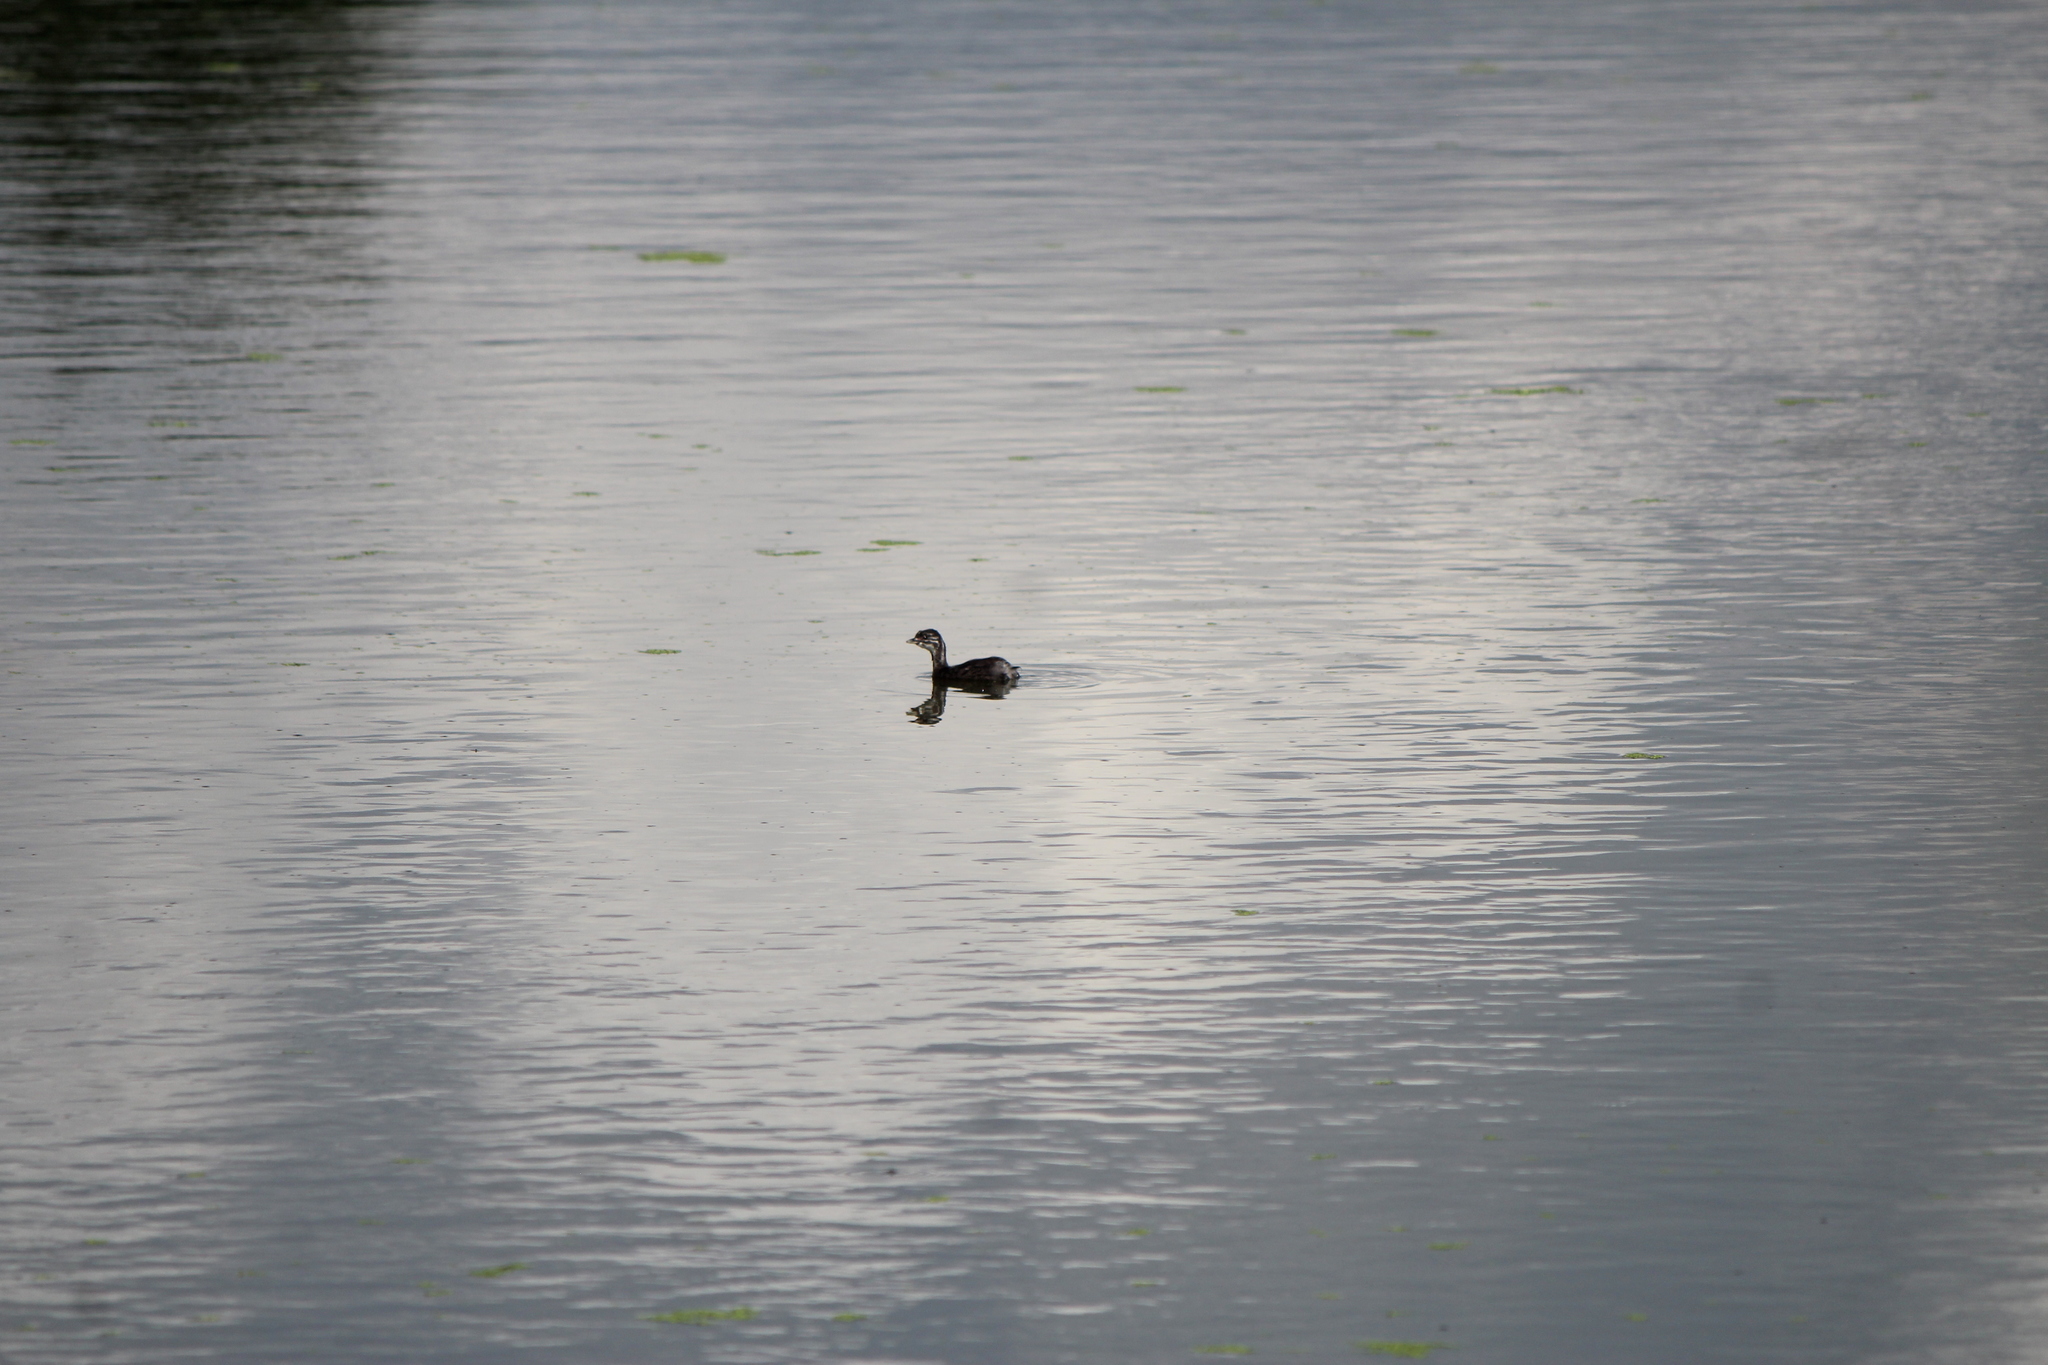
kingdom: Animalia
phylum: Chordata
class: Aves
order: Podicipediformes
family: Podicipedidae
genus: Tachybaptus
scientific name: Tachybaptus dominicus
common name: Least grebe
